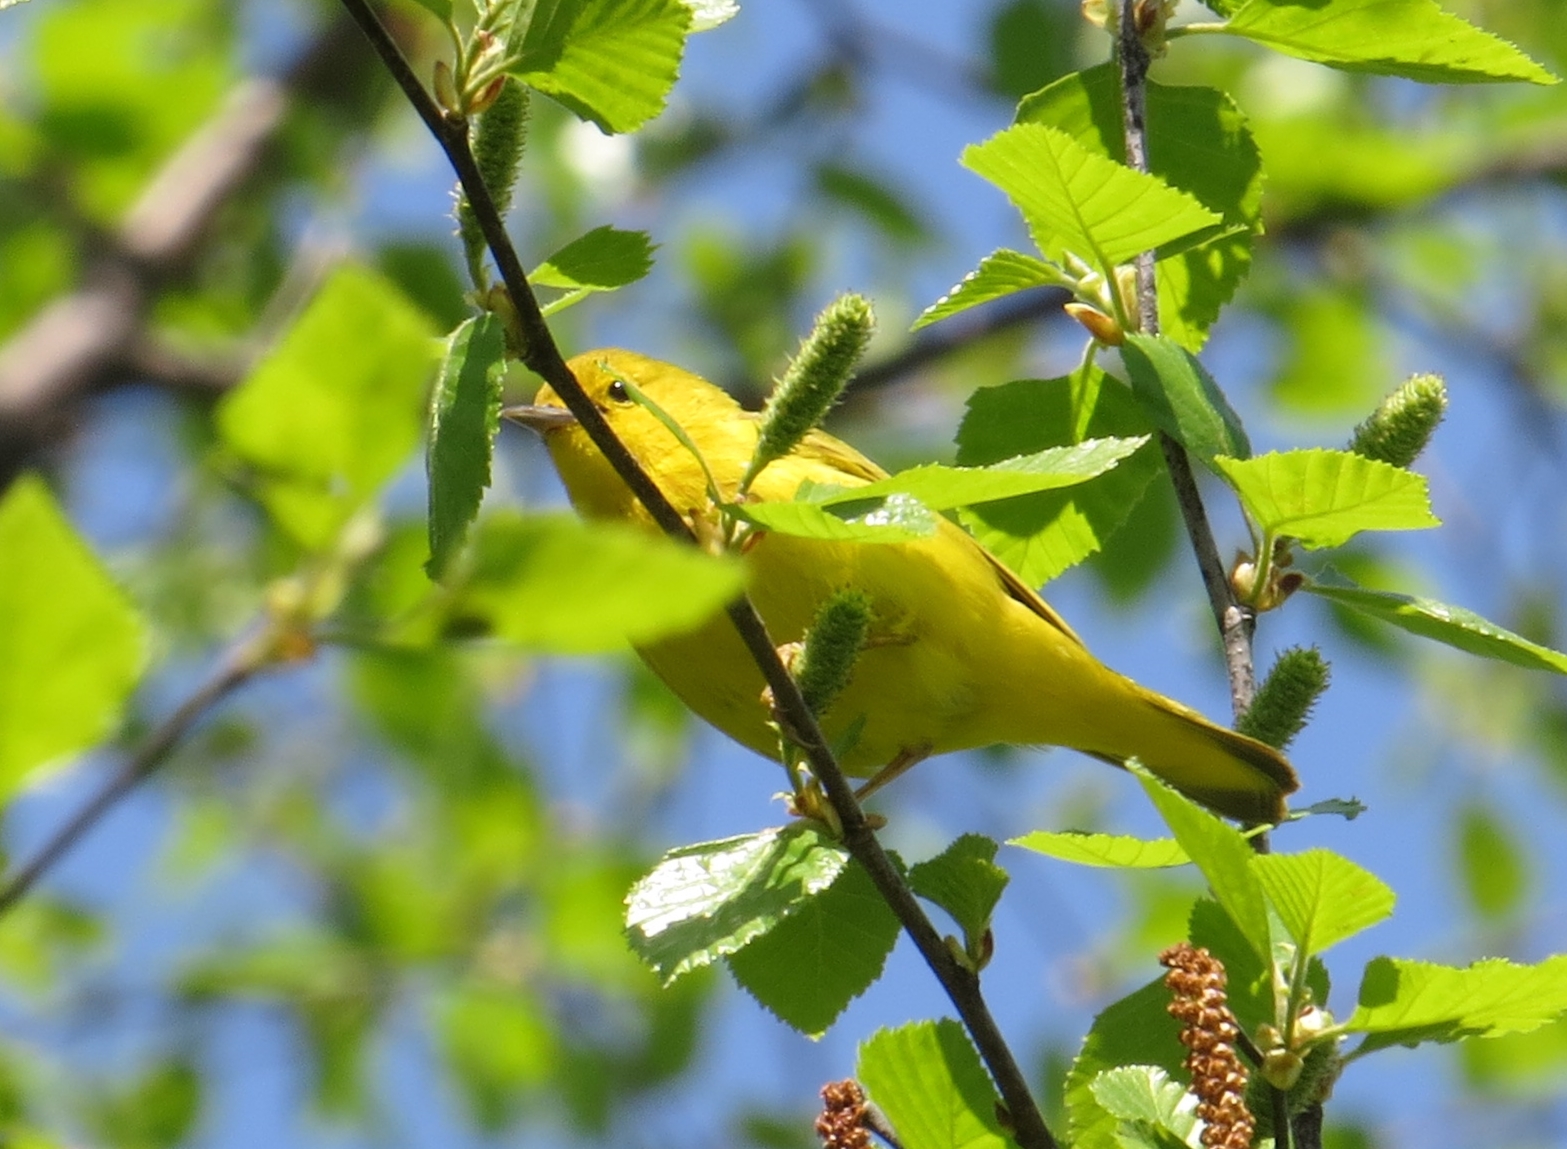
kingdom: Animalia
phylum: Chordata
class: Aves
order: Passeriformes
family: Parulidae
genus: Setophaga
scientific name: Setophaga petechia
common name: Yellow warbler
